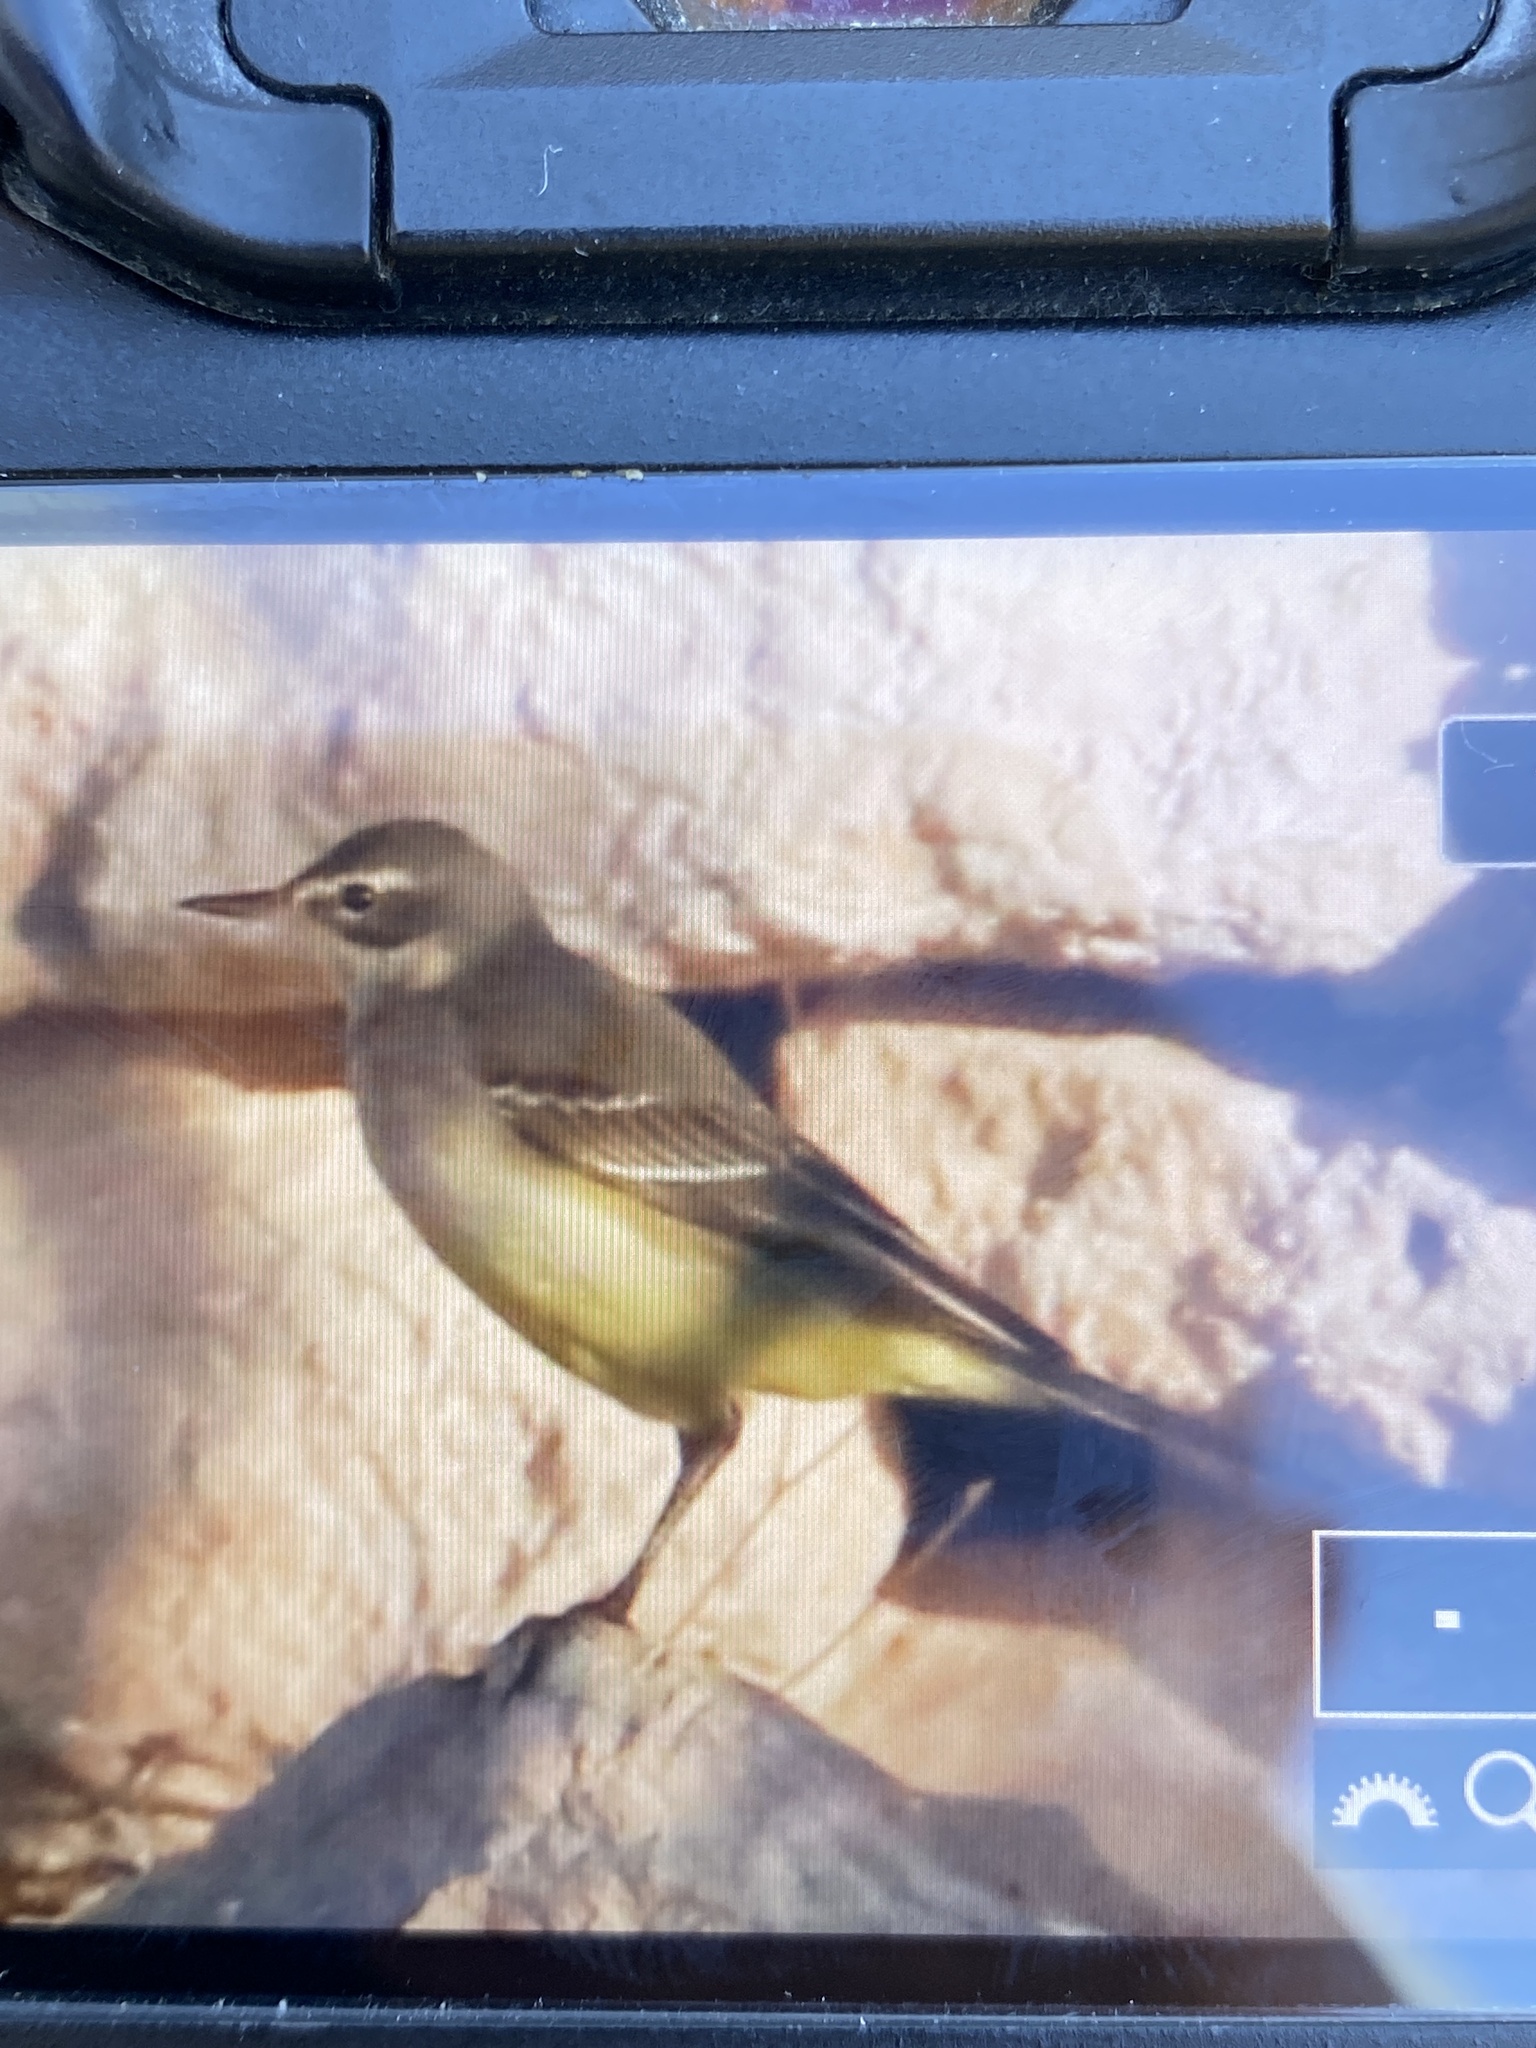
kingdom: Animalia
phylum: Chordata
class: Aves
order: Passeriformes
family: Motacillidae
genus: Motacilla
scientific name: Motacilla flava
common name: Western yellow wagtail
